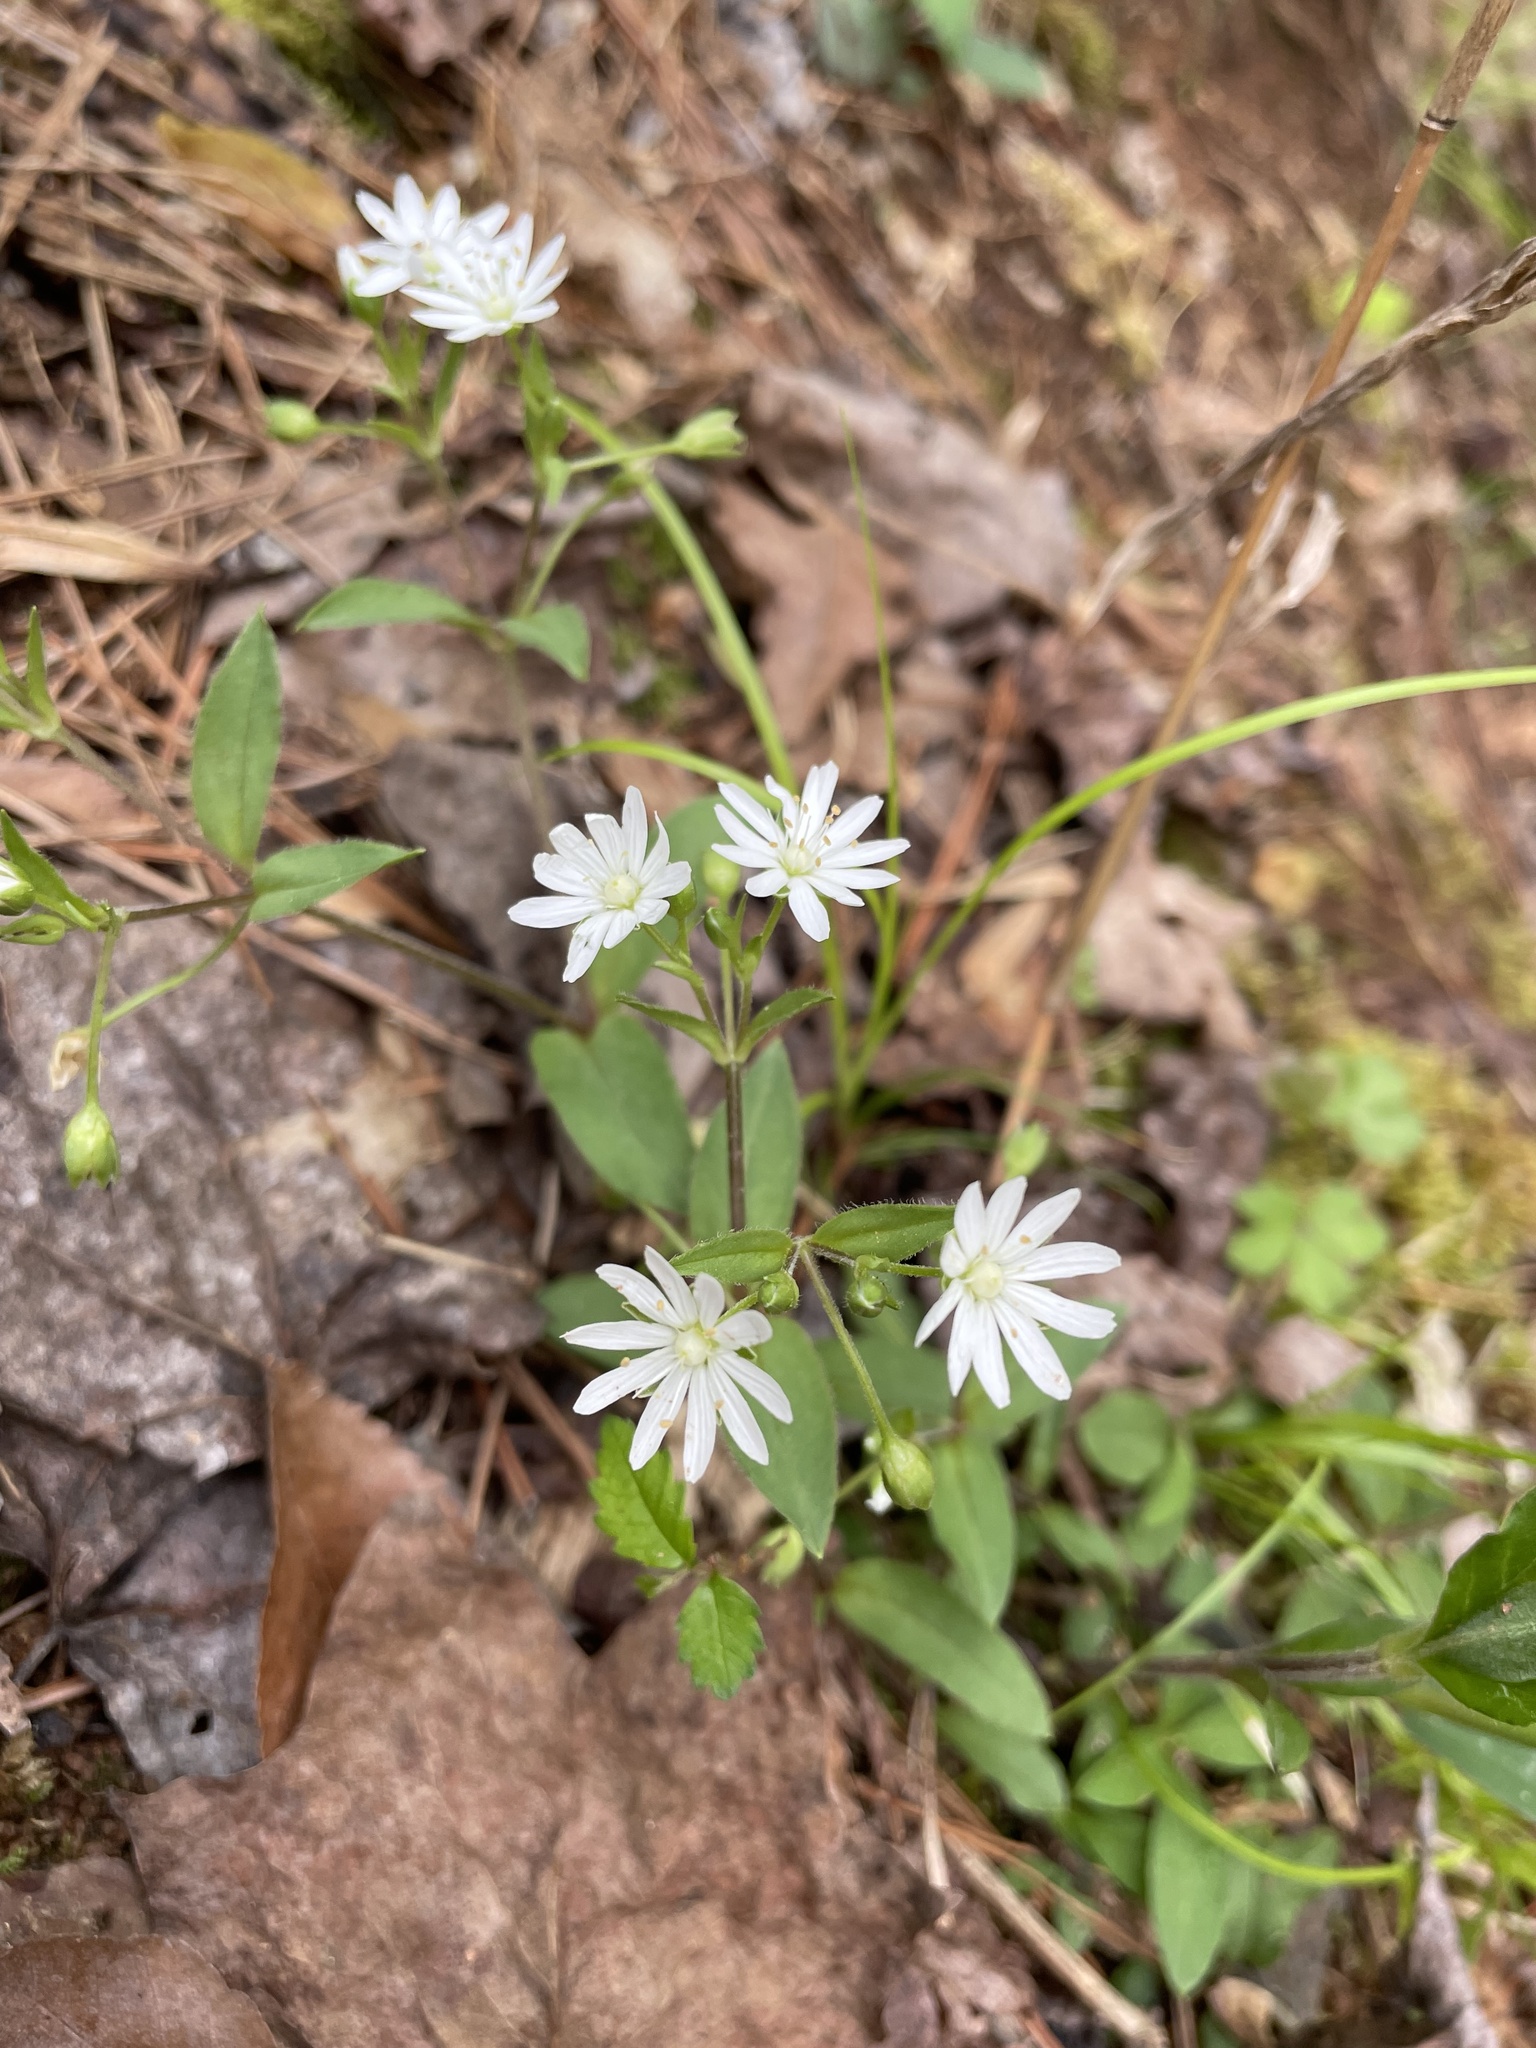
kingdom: Plantae
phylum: Tracheophyta
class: Magnoliopsida
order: Caryophyllales
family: Caryophyllaceae
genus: Stellaria
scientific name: Stellaria pubera
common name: Star chickweed
